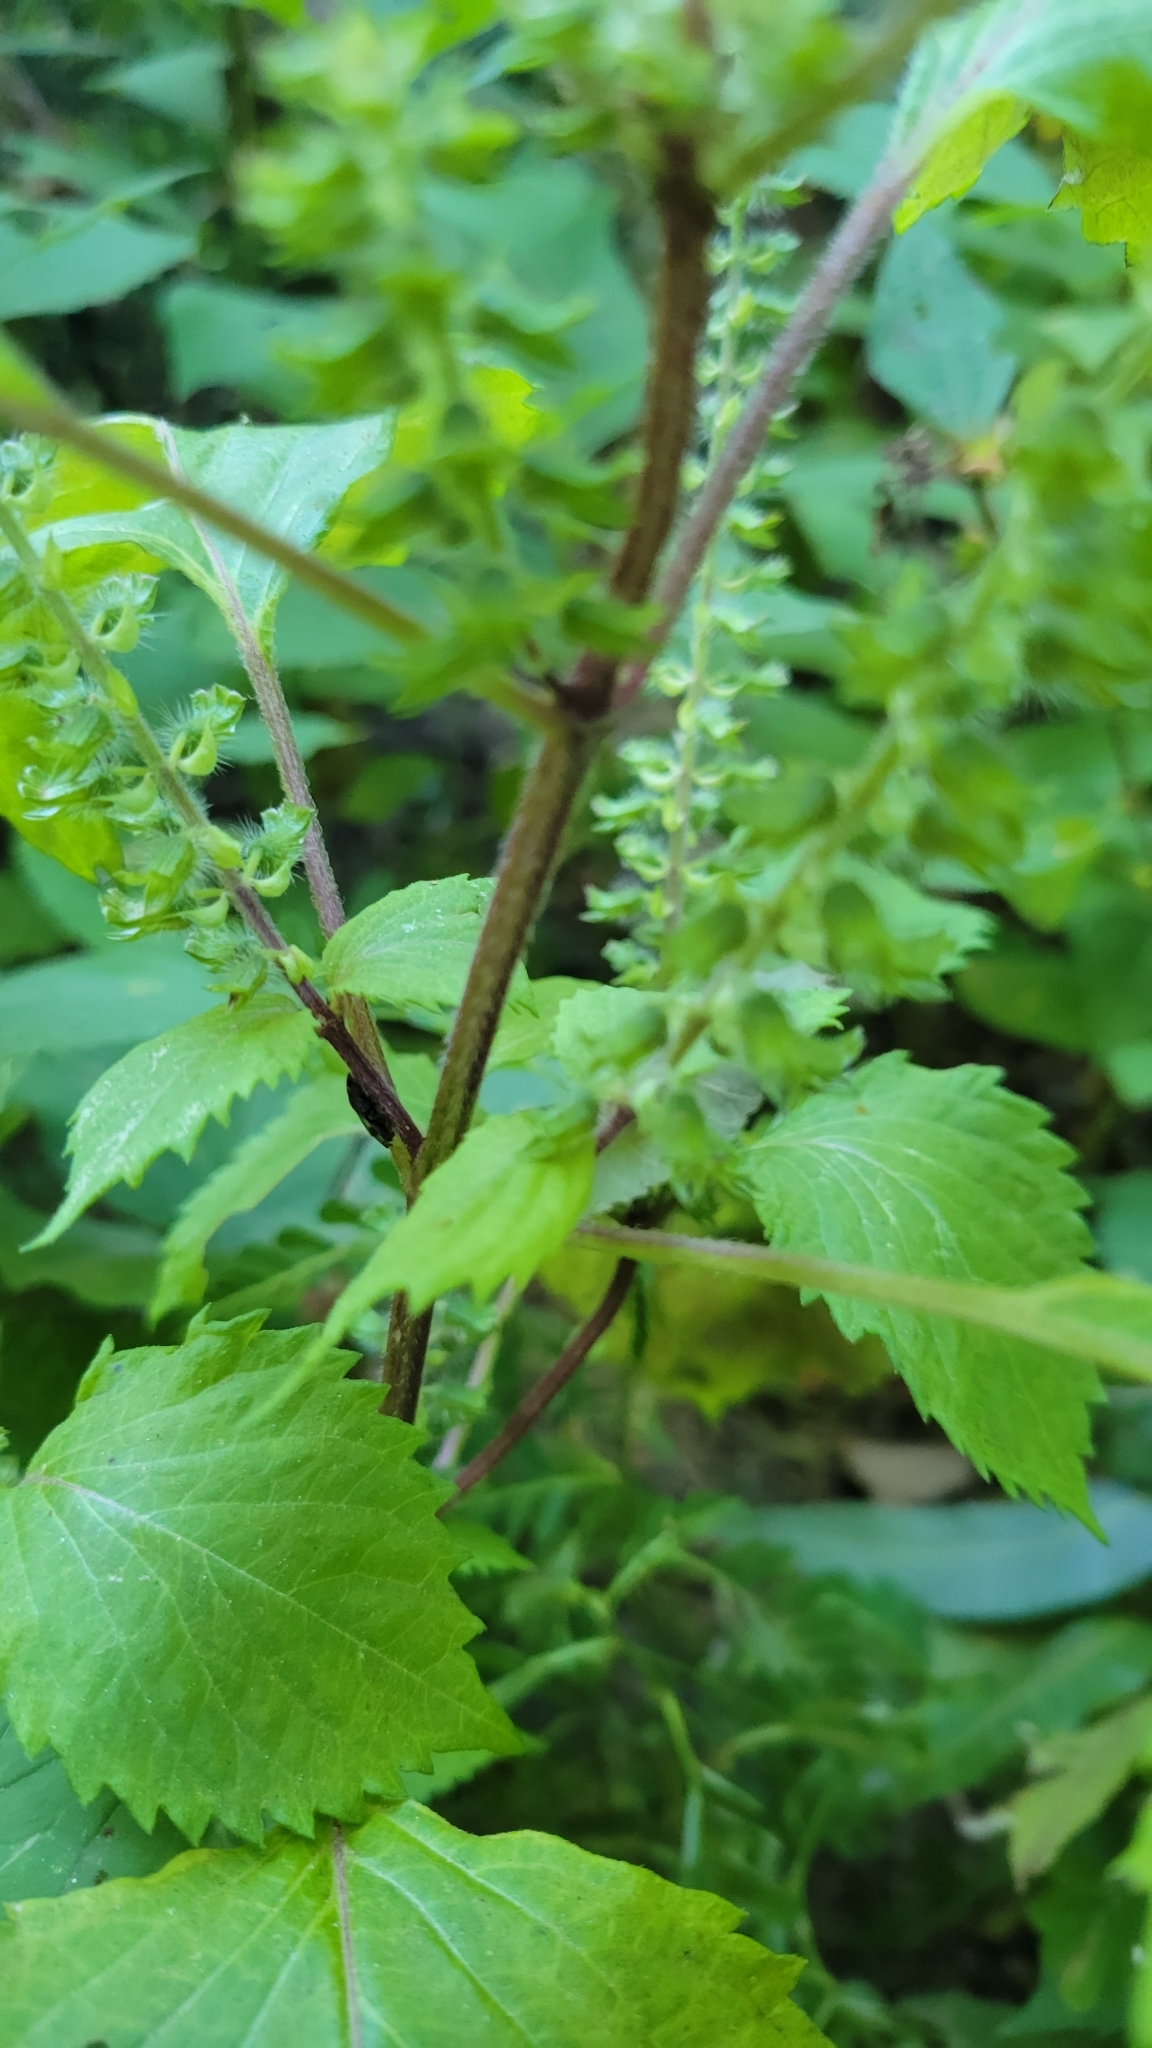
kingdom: Plantae
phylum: Tracheophyta
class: Magnoliopsida
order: Lamiales
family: Lamiaceae
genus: Perilla
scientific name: Perilla frutescens
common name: Perilla
